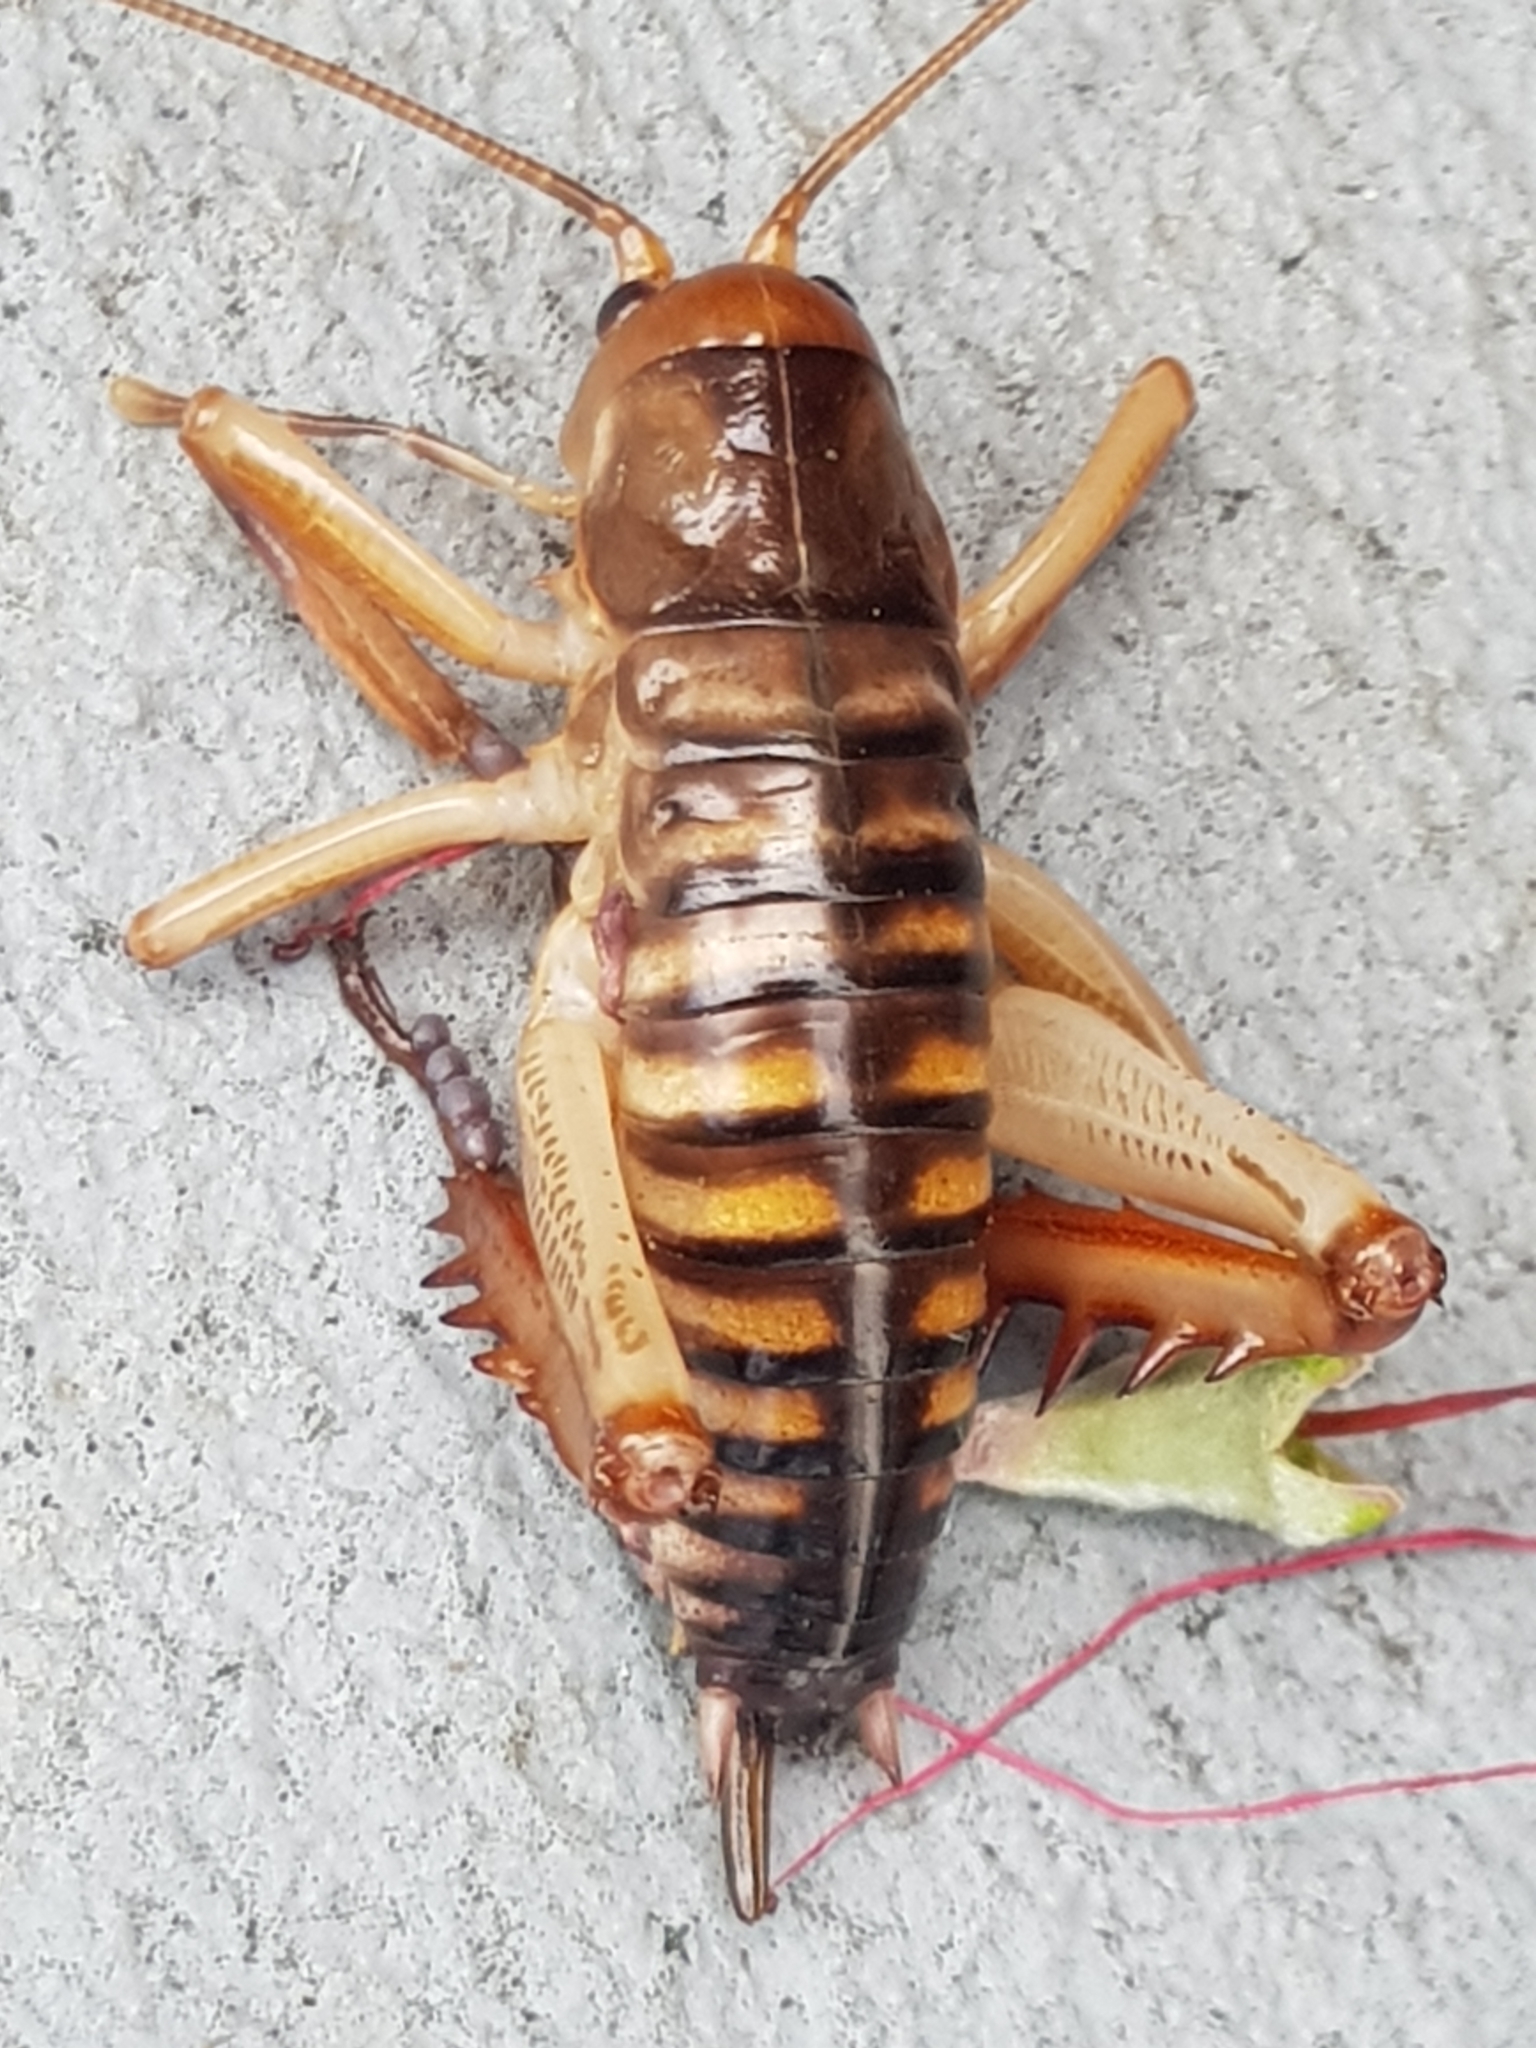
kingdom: Animalia
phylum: Arthropoda
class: Insecta
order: Orthoptera
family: Anostostomatidae
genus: Hemideina
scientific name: Hemideina crassidens
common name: Wellington tree weta
